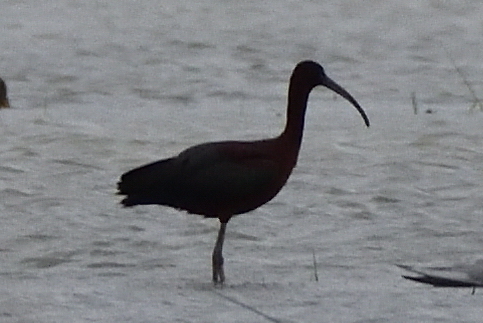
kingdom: Animalia
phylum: Chordata
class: Aves
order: Pelecaniformes
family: Threskiornithidae
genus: Plegadis
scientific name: Plegadis falcinellus
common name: Glossy ibis
